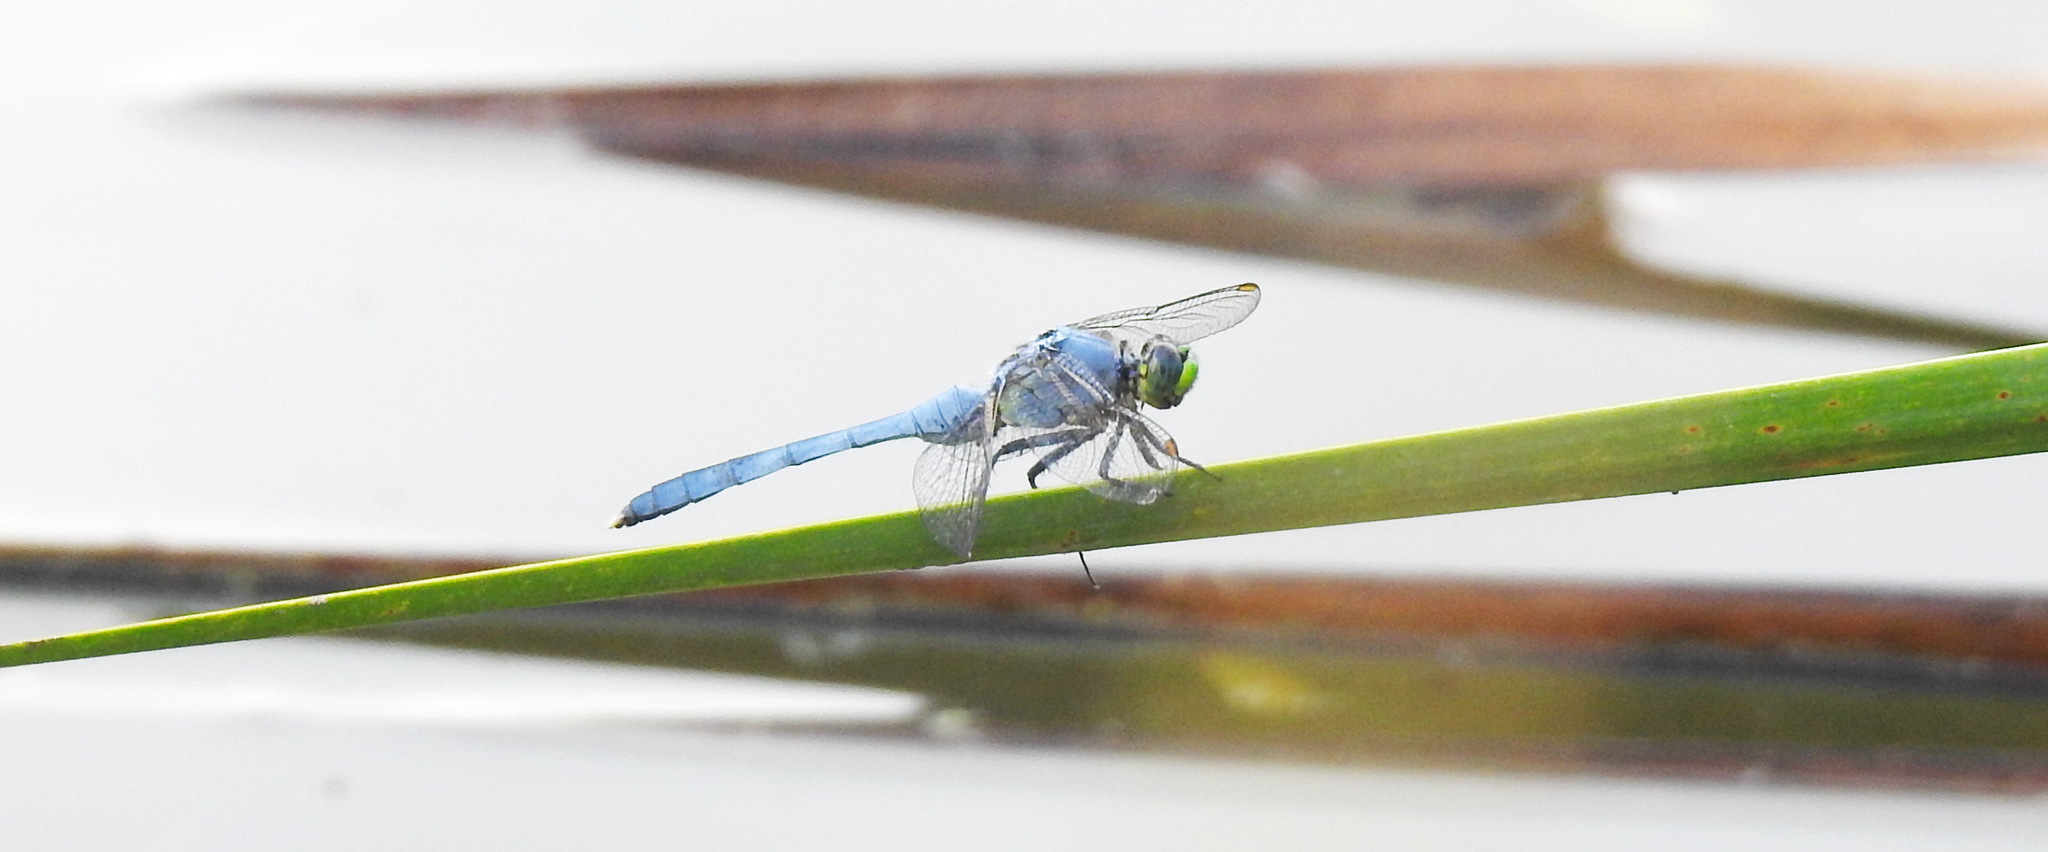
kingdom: Animalia
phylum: Arthropoda
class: Insecta
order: Odonata
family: Libellulidae
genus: Erythemis
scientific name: Erythemis simplicicollis
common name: Eastern pondhawk
